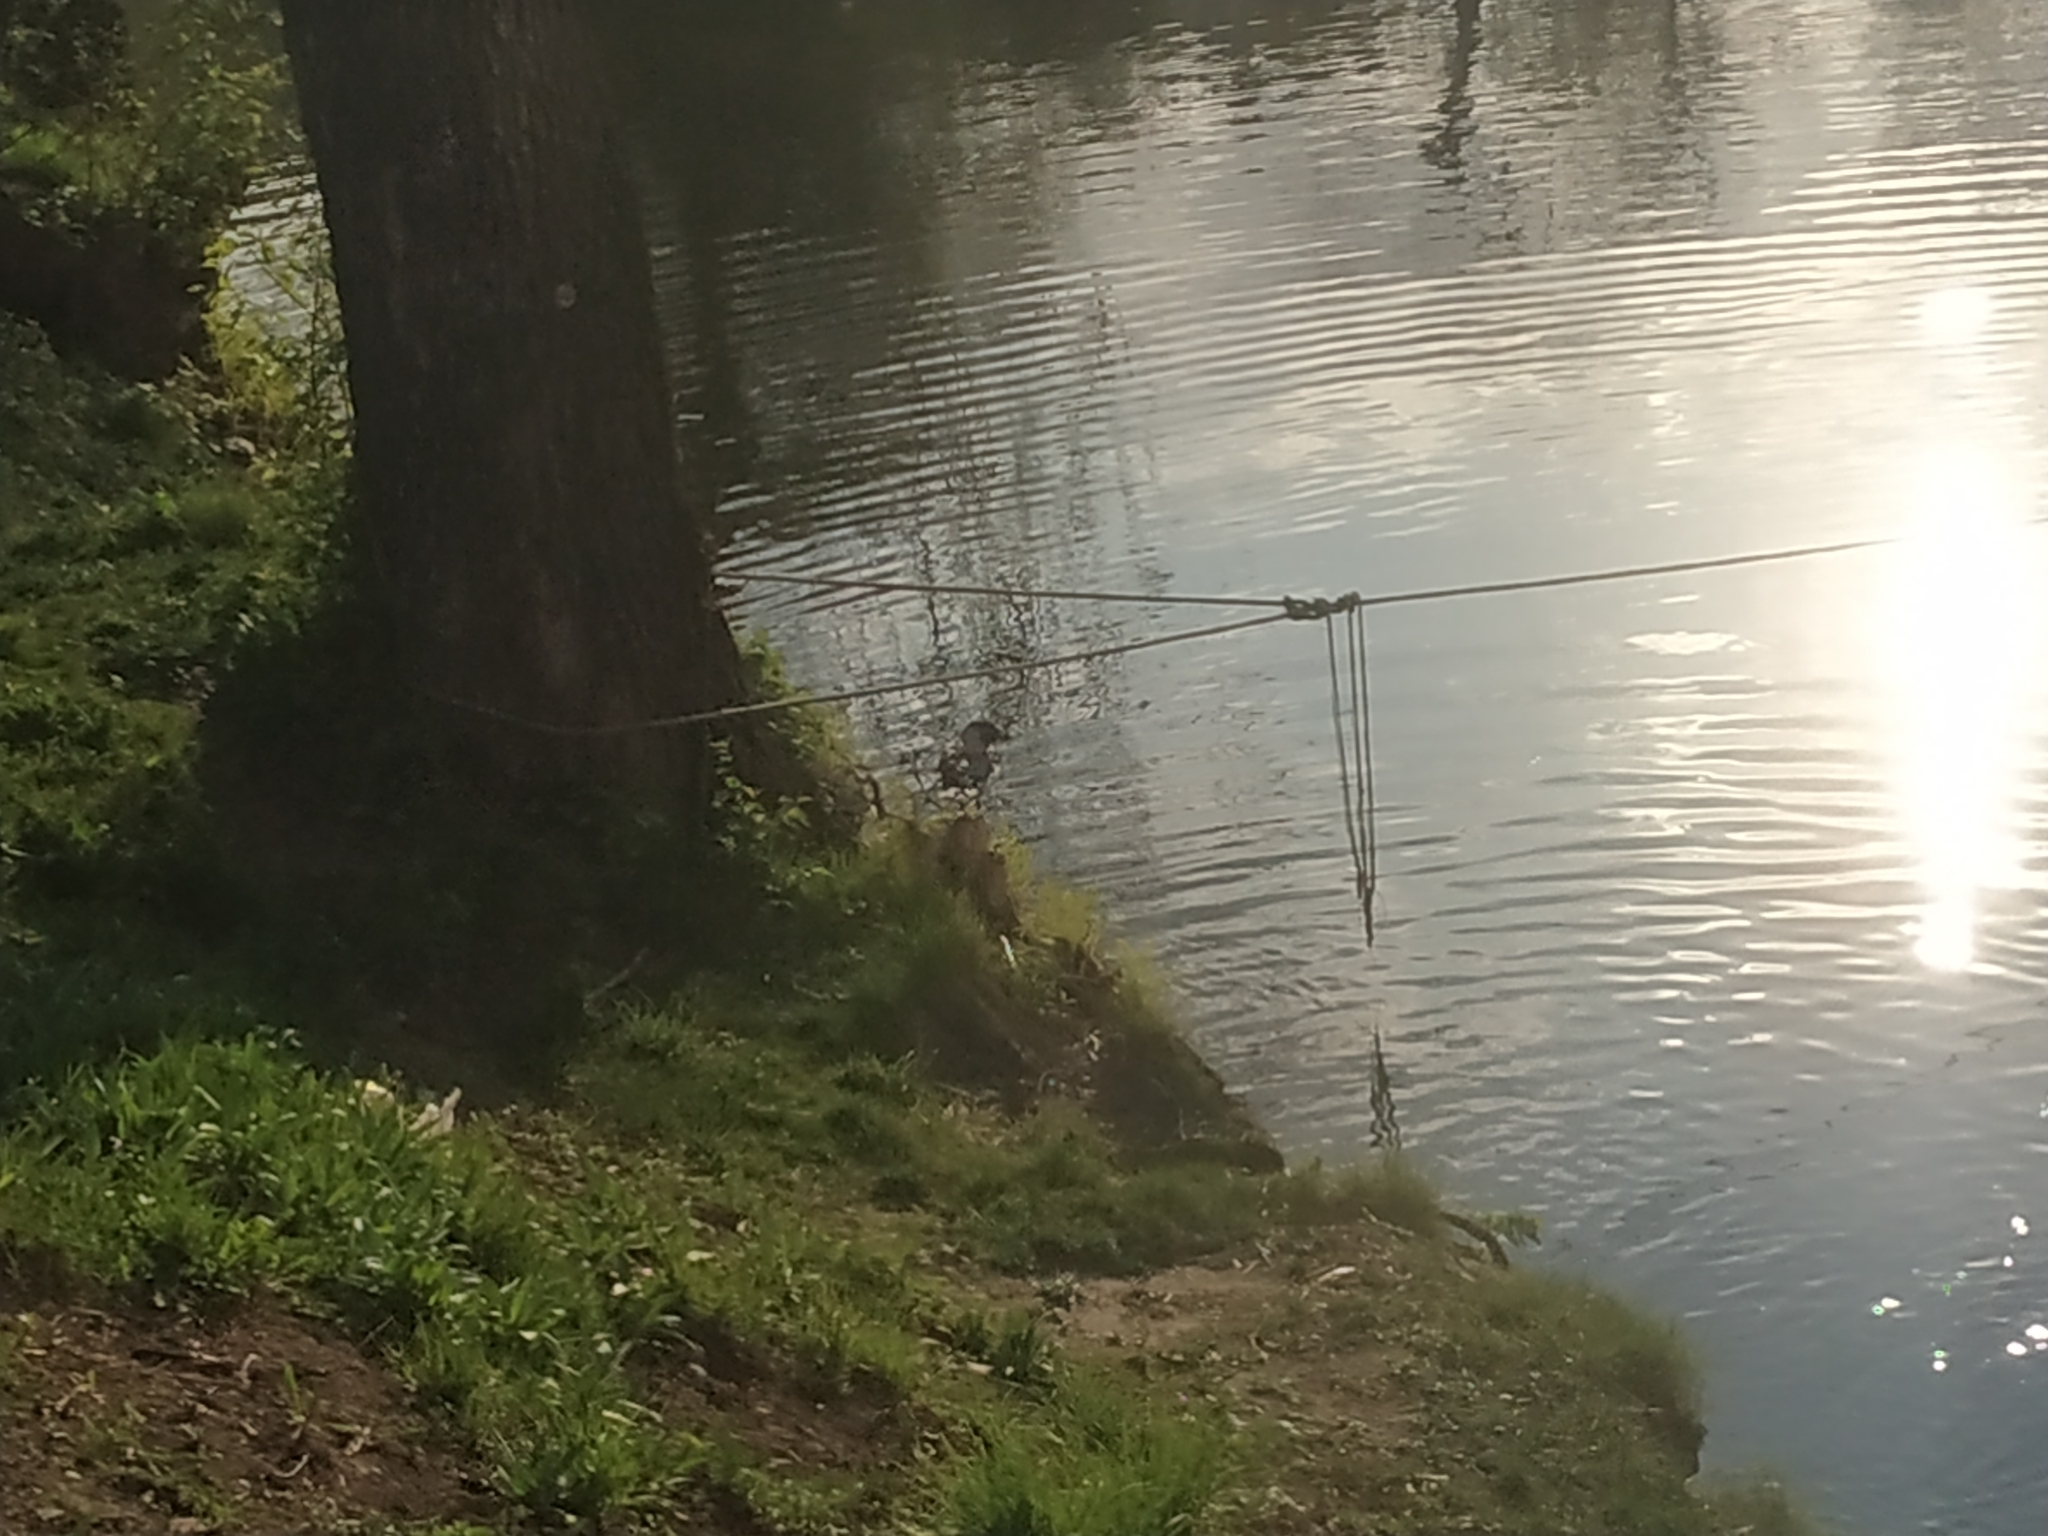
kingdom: Animalia
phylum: Chordata
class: Aves
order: Passeriformes
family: Corvidae
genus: Corvus
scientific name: Corvus cornix
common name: Hooded crow
